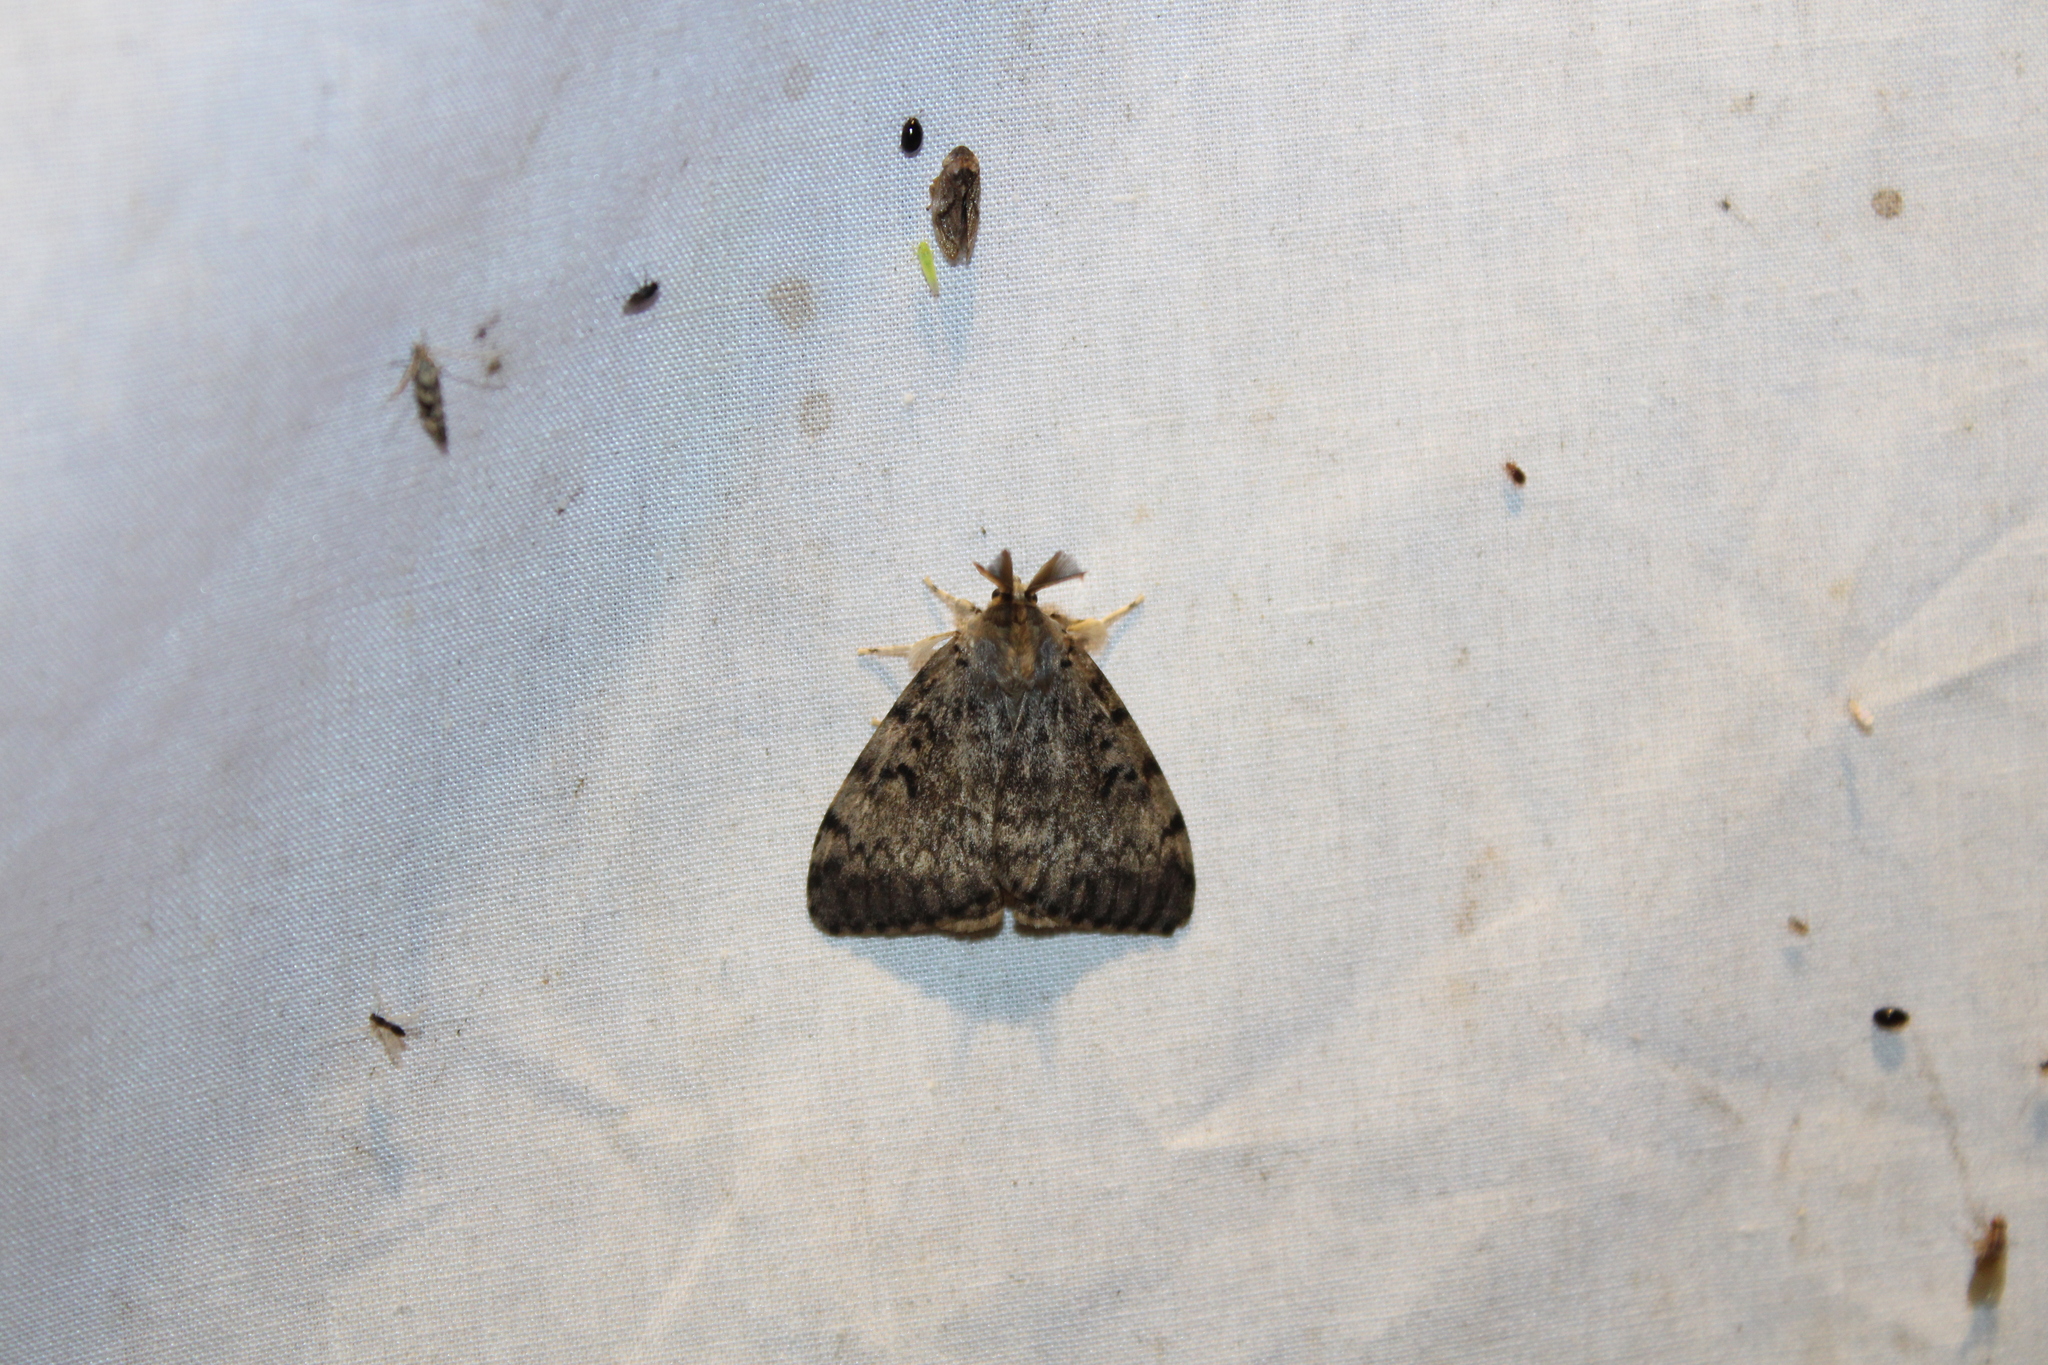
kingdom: Animalia
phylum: Arthropoda
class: Insecta
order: Lepidoptera
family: Erebidae
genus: Lymantria
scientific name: Lymantria dispar
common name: Gypsy moth
